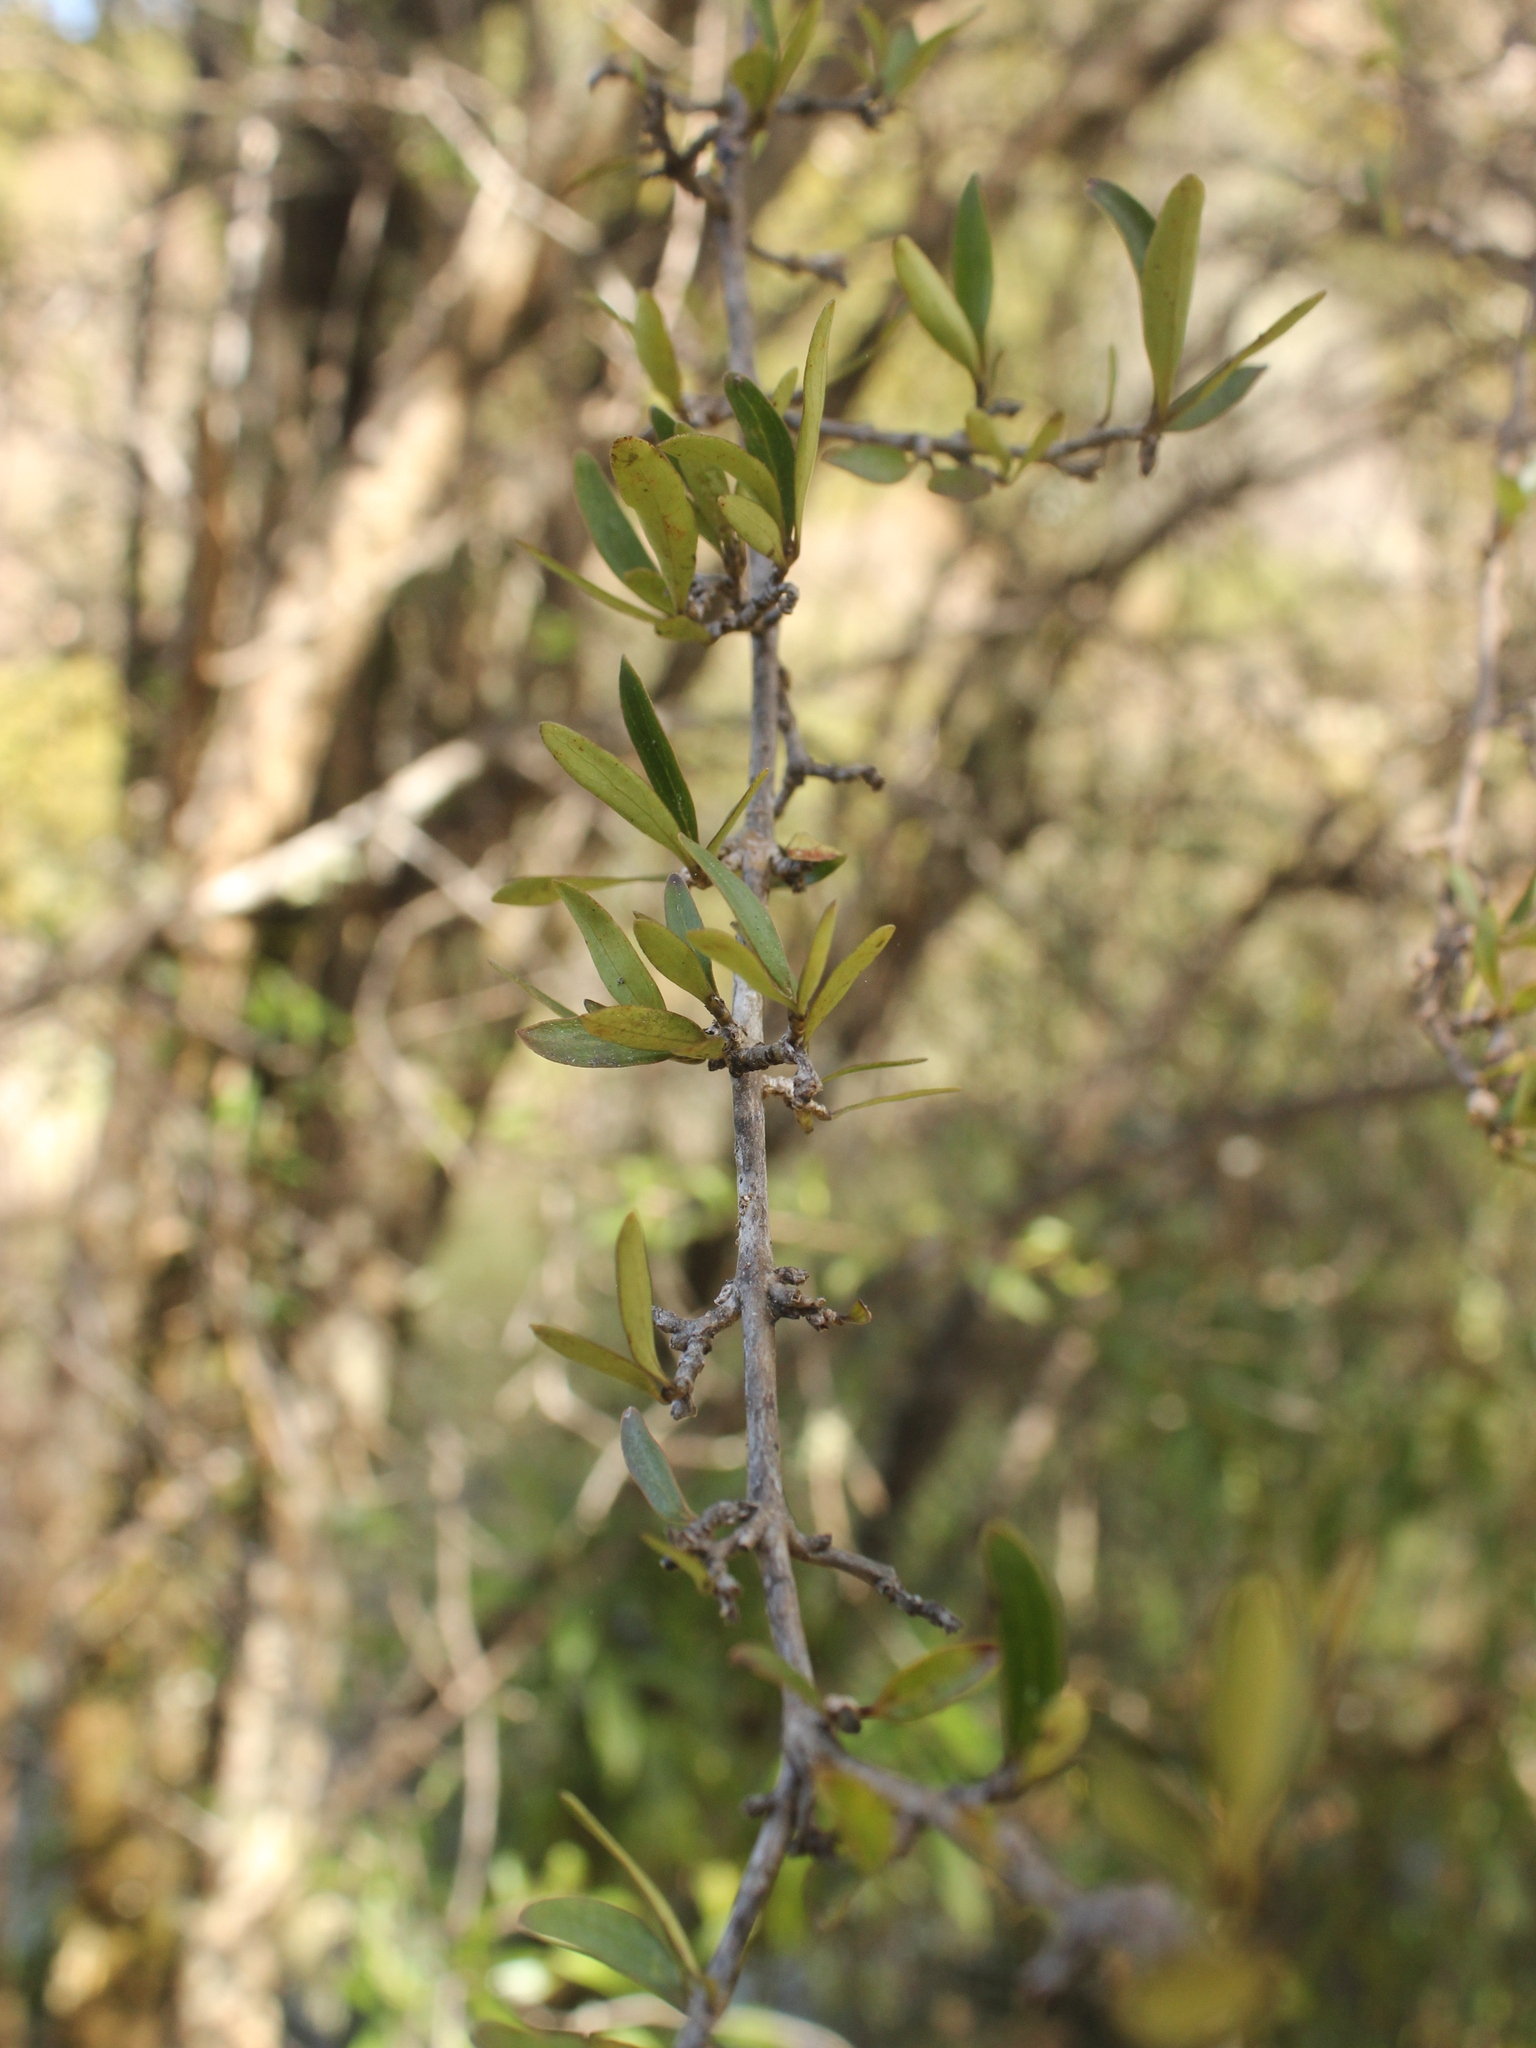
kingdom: Plantae
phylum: Tracheophyta
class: Magnoliopsida
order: Gentianales
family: Rubiaceae
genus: Coprosma
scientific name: Coprosma cunninghamii
